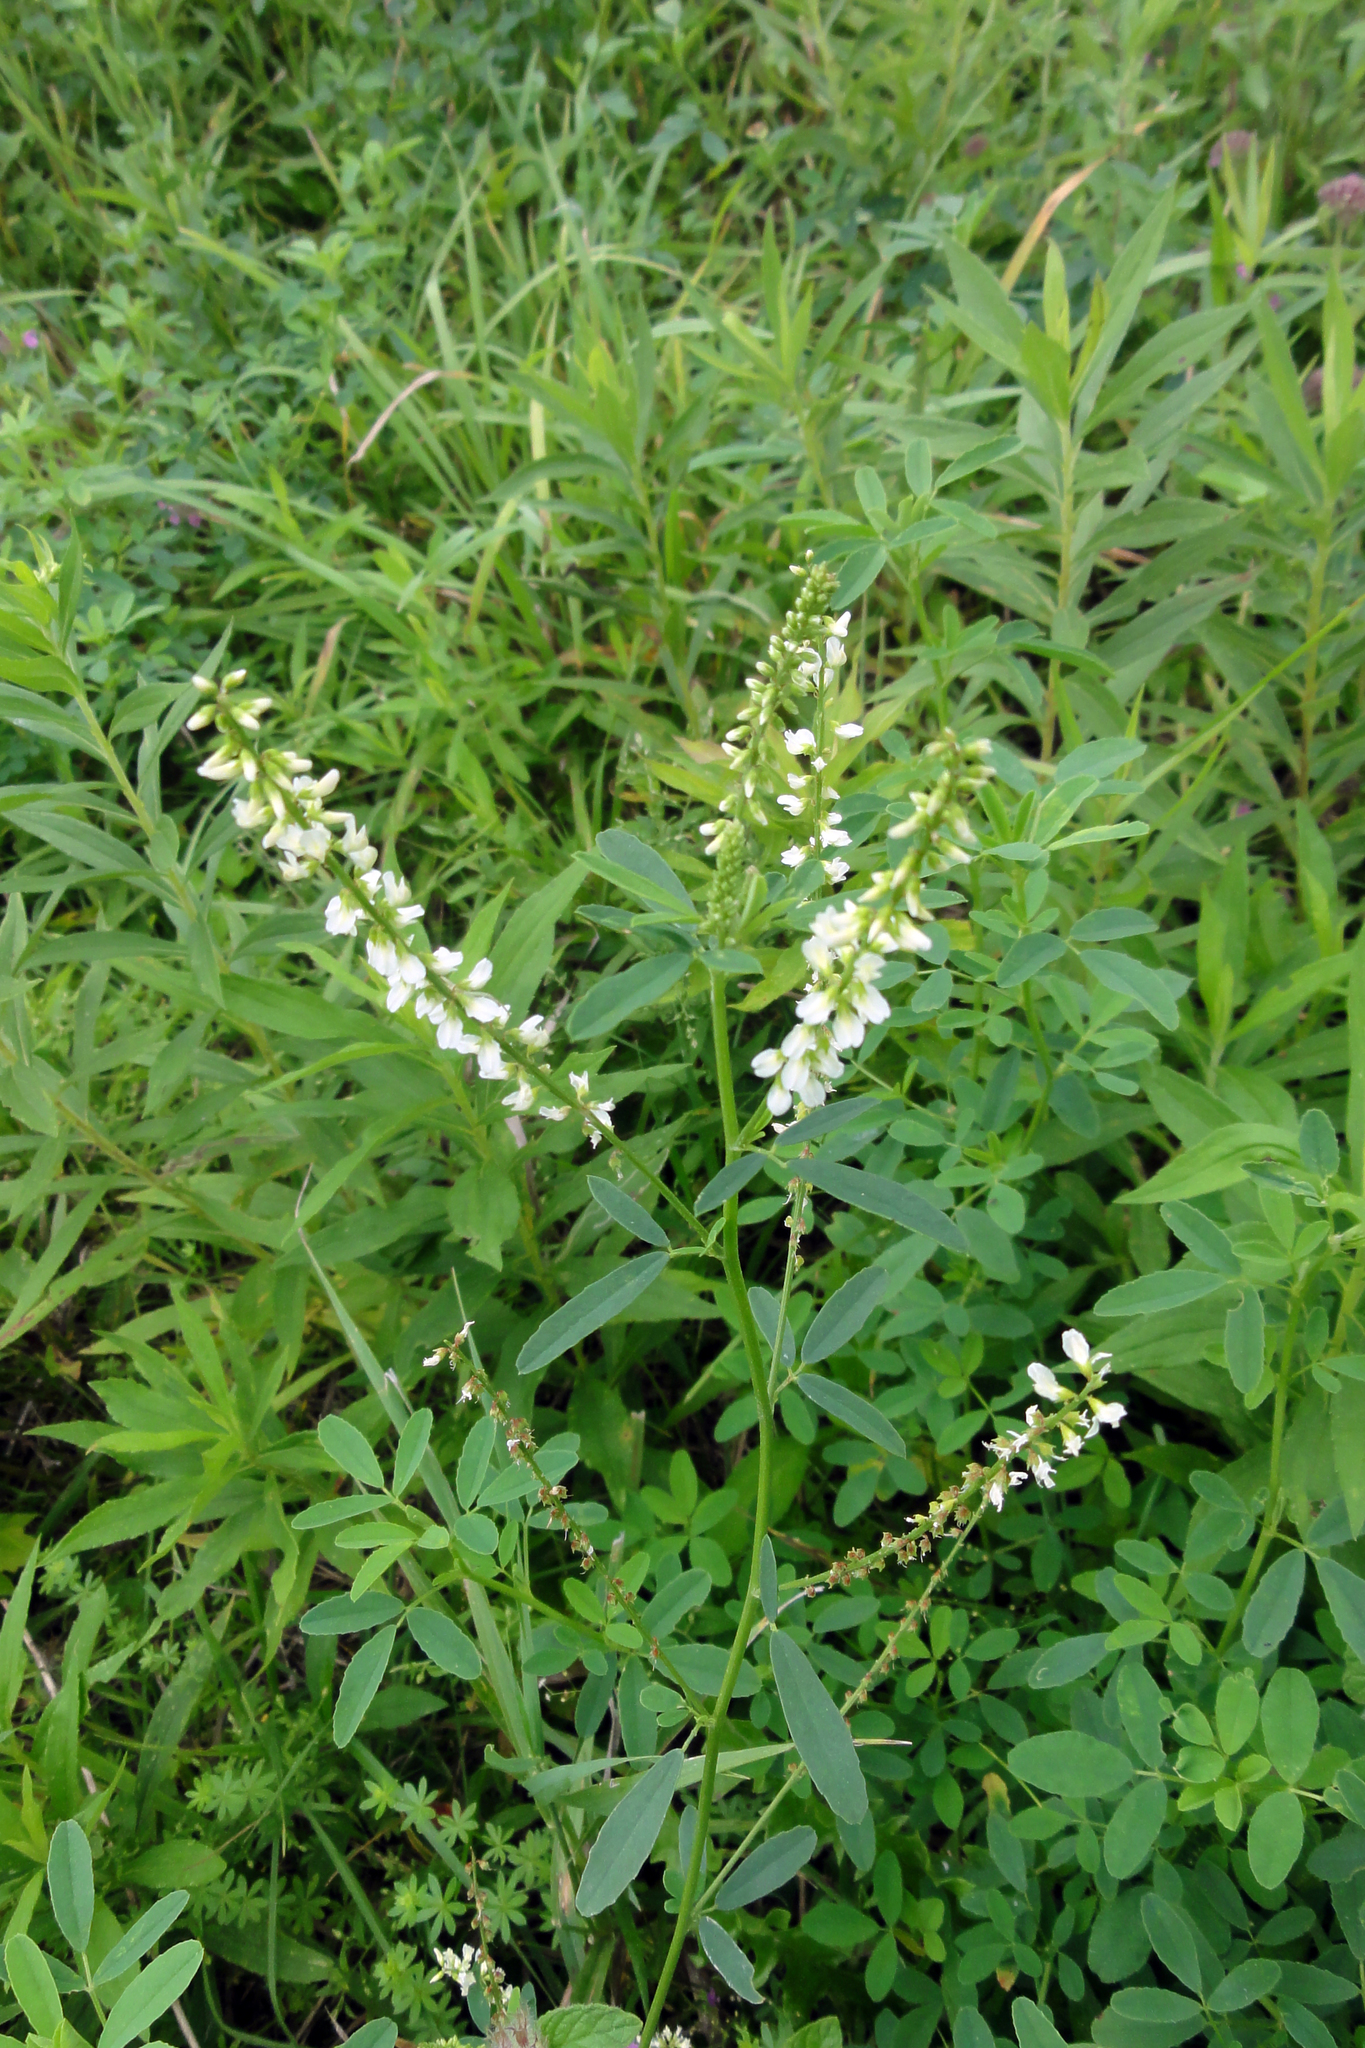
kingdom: Plantae
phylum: Tracheophyta
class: Magnoliopsida
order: Fabales
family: Fabaceae
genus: Melilotus
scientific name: Melilotus albus
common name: White melilot
